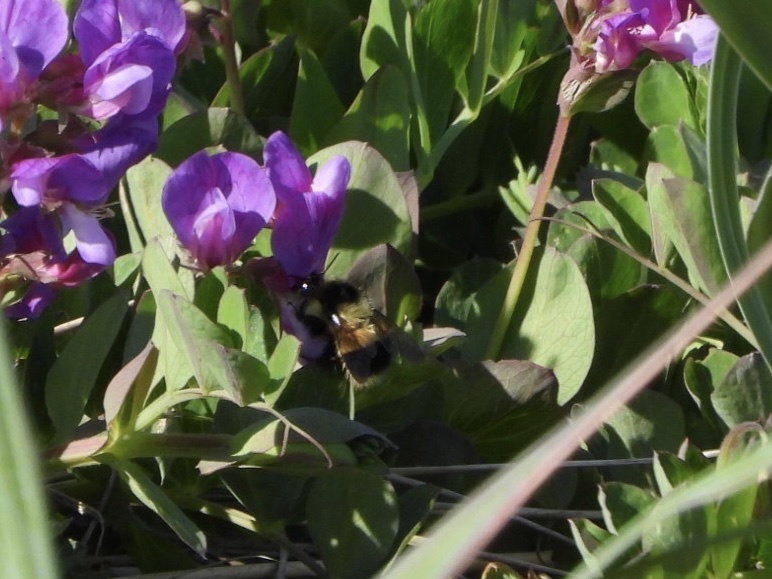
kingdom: Animalia
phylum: Arthropoda
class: Insecta
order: Hymenoptera
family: Apidae
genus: Bombus
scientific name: Bombus vagans
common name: Half-black bumble bee
